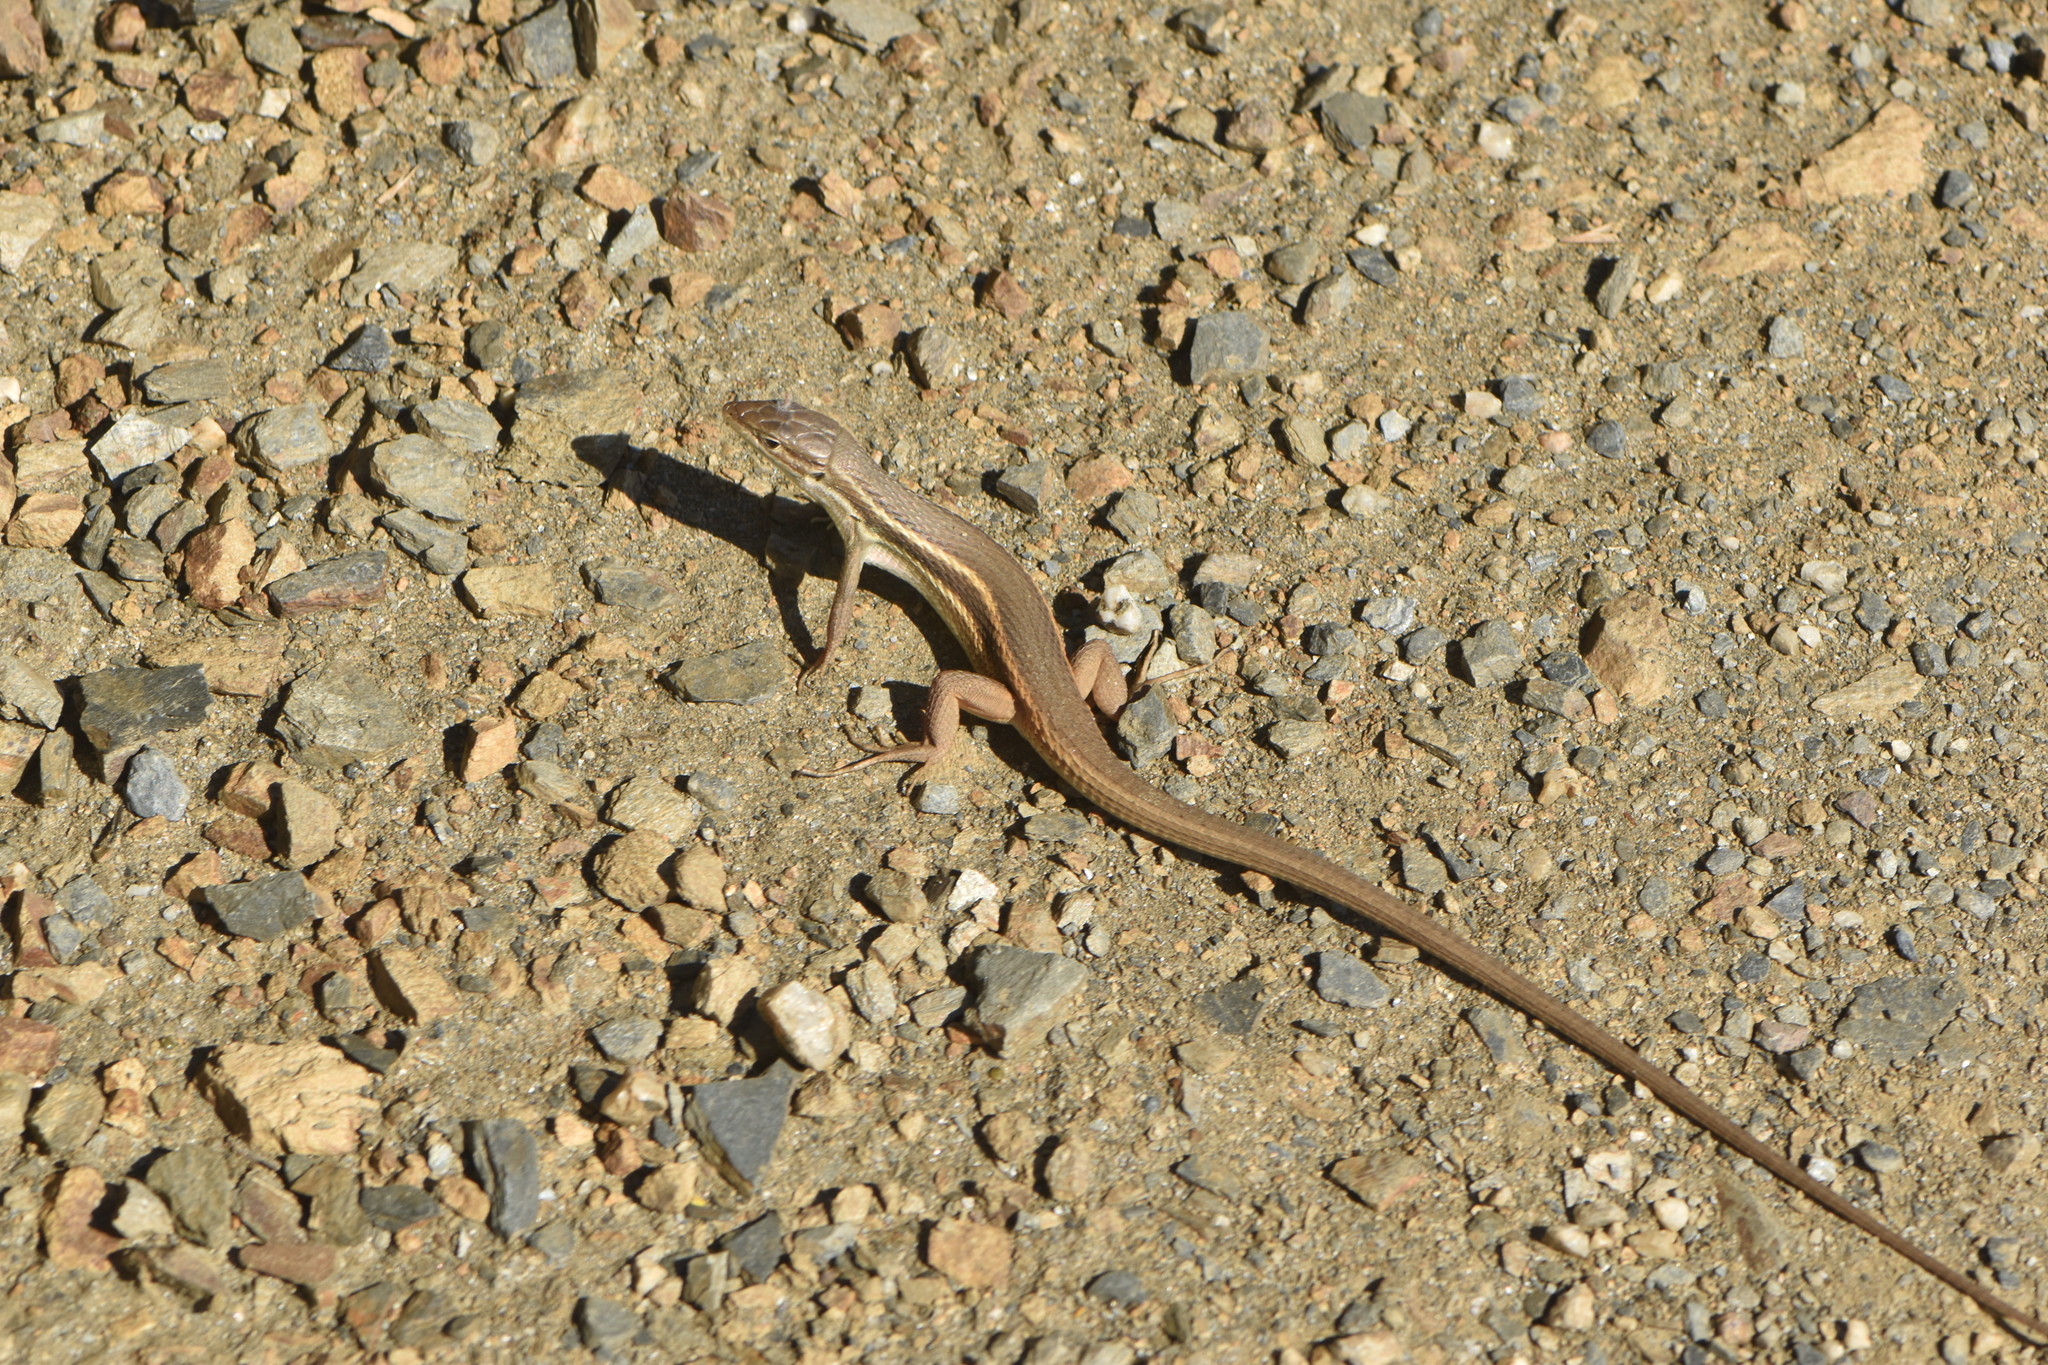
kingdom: Animalia
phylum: Chordata
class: Squamata
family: Lacertidae
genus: Psammodromus
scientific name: Psammodromus algirus
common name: Algerian psammodromus
